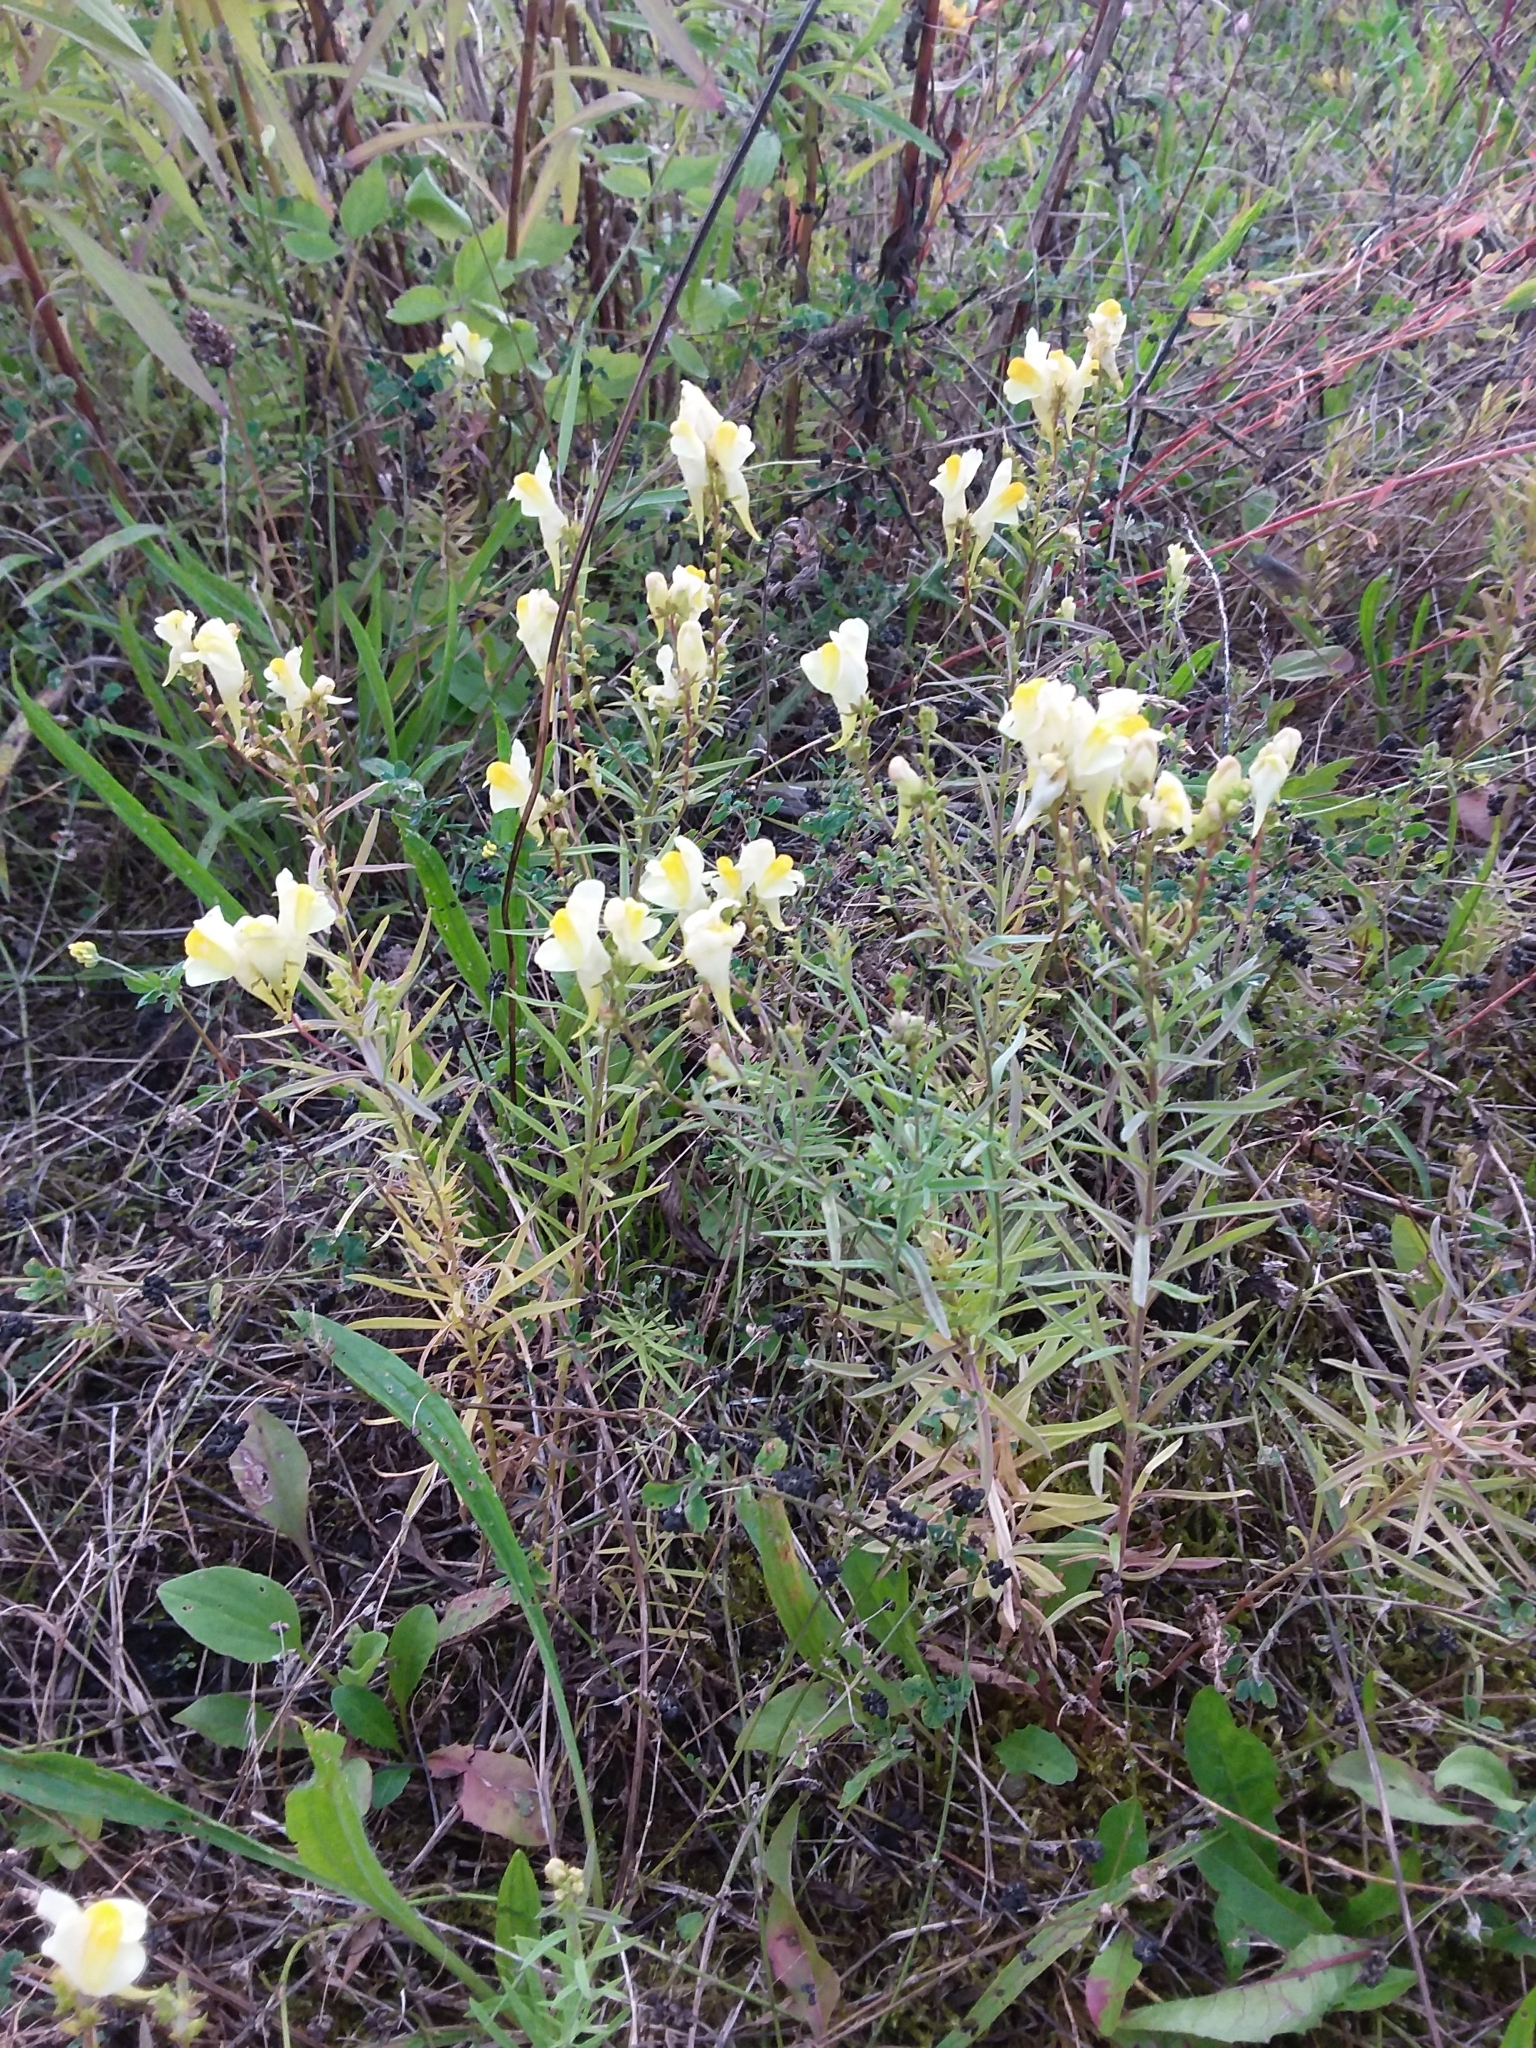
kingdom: Plantae
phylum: Tracheophyta
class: Magnoliopsida
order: Lamiales
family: Plantaginaceae
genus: Linaria
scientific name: Linaria vulgaris
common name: Butter and eggs
